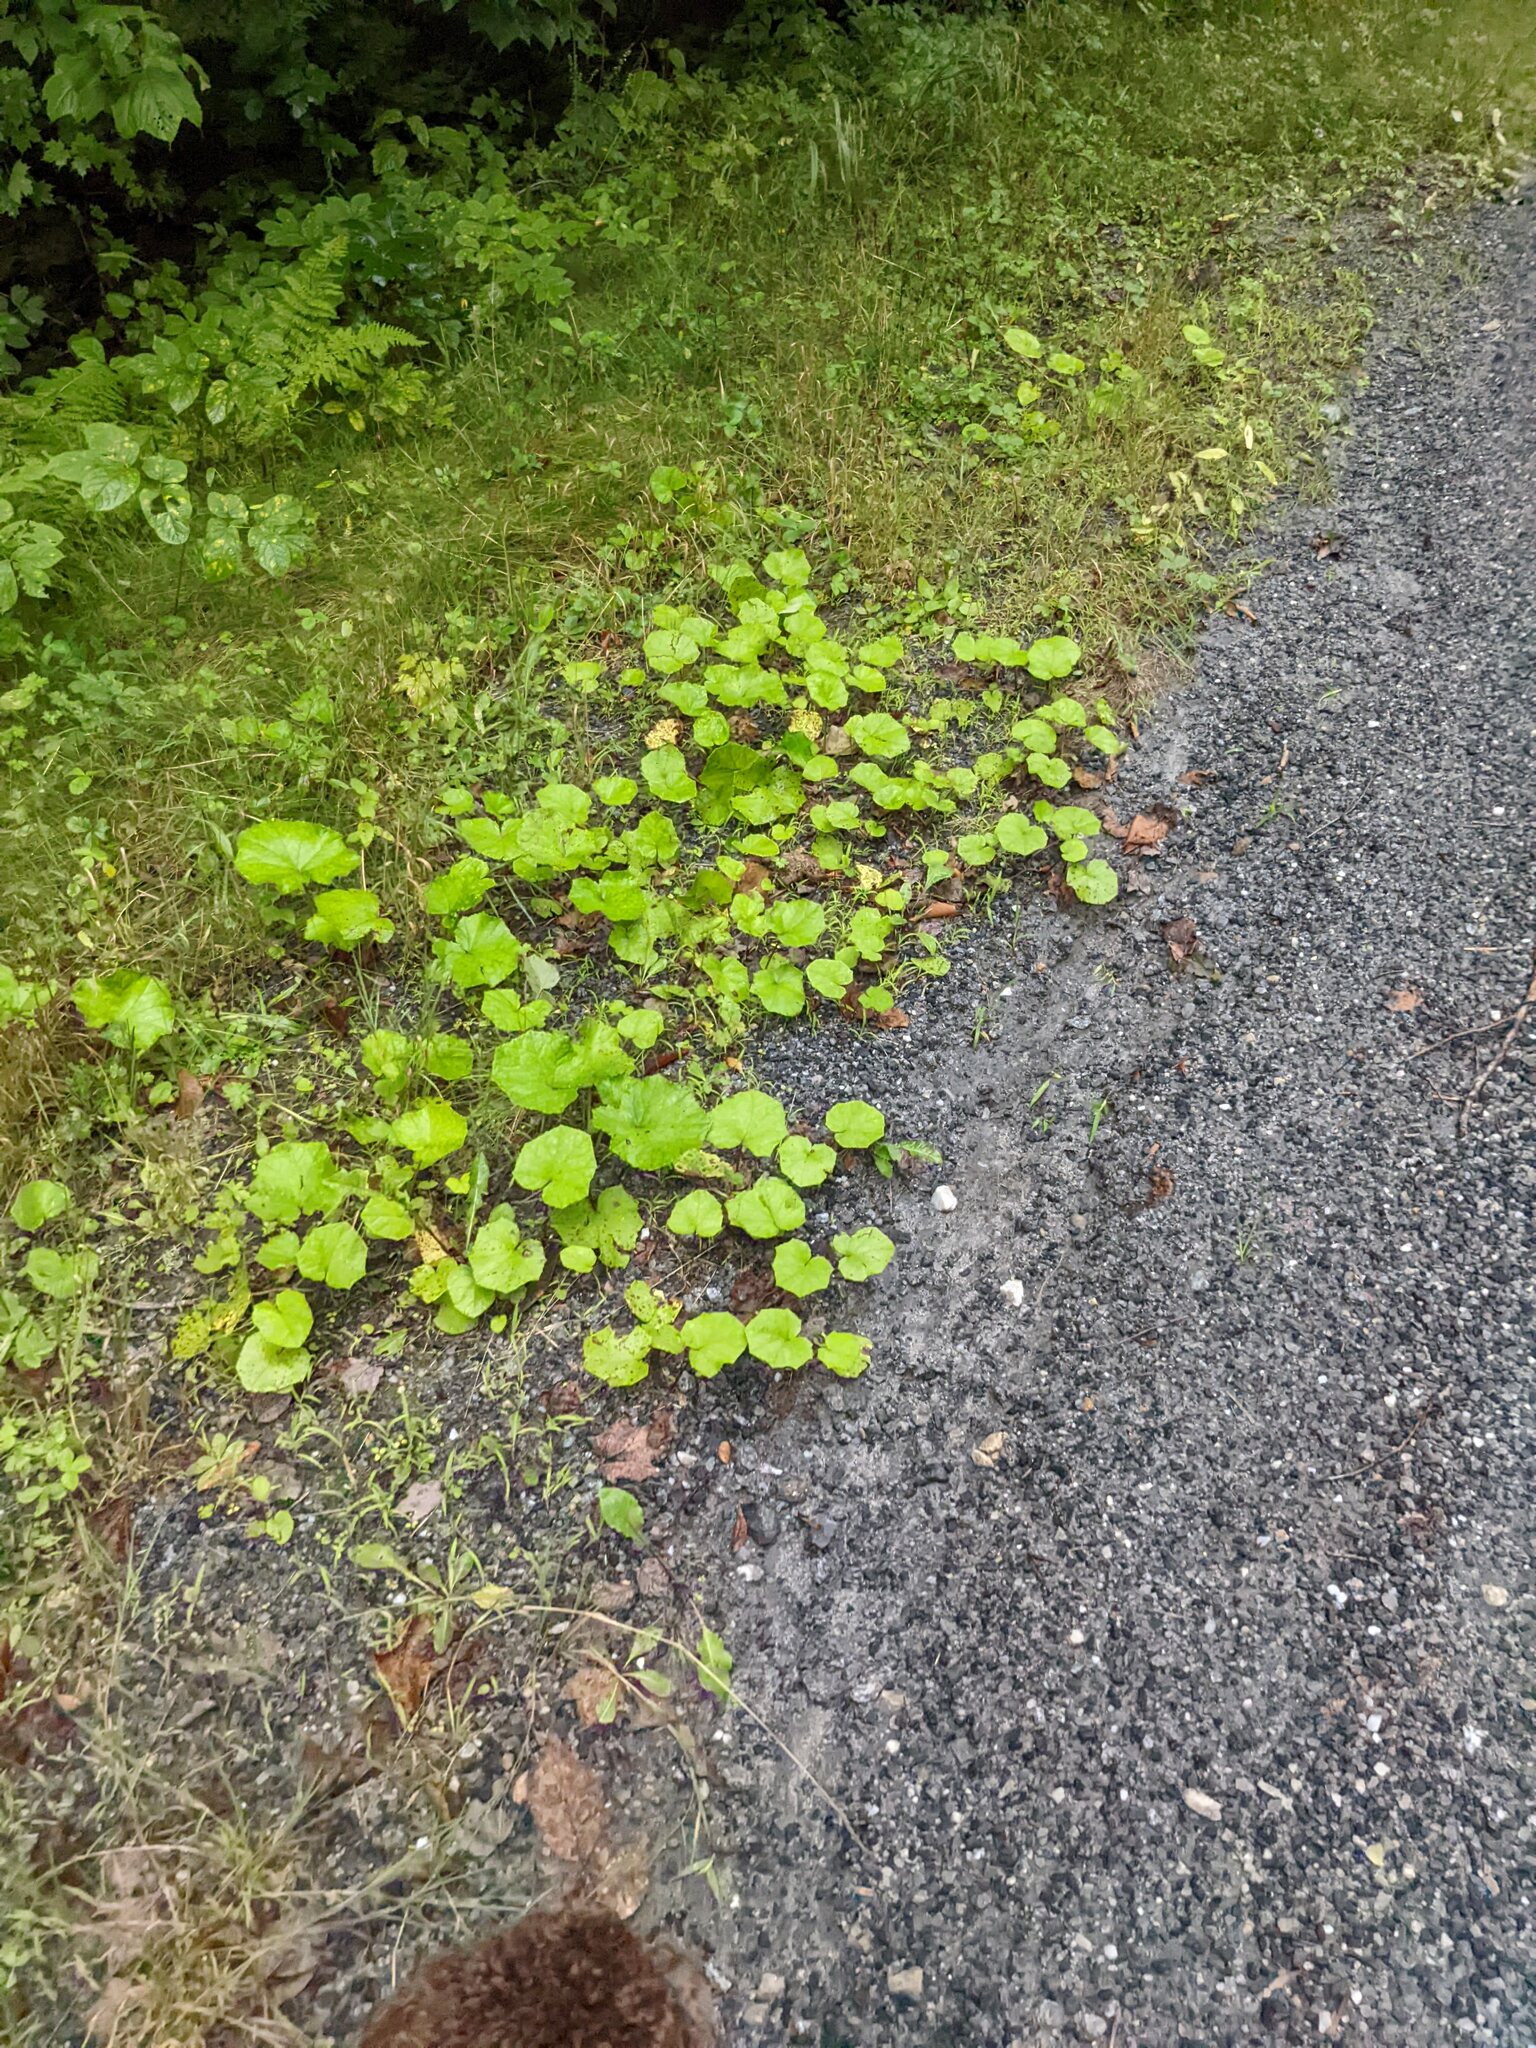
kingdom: Plantae
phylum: Tracheophyta
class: Magnoliopsida
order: Asterales
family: Asteraceae
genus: Tussilago
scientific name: Tussilago farfara
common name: Coltsfoot
